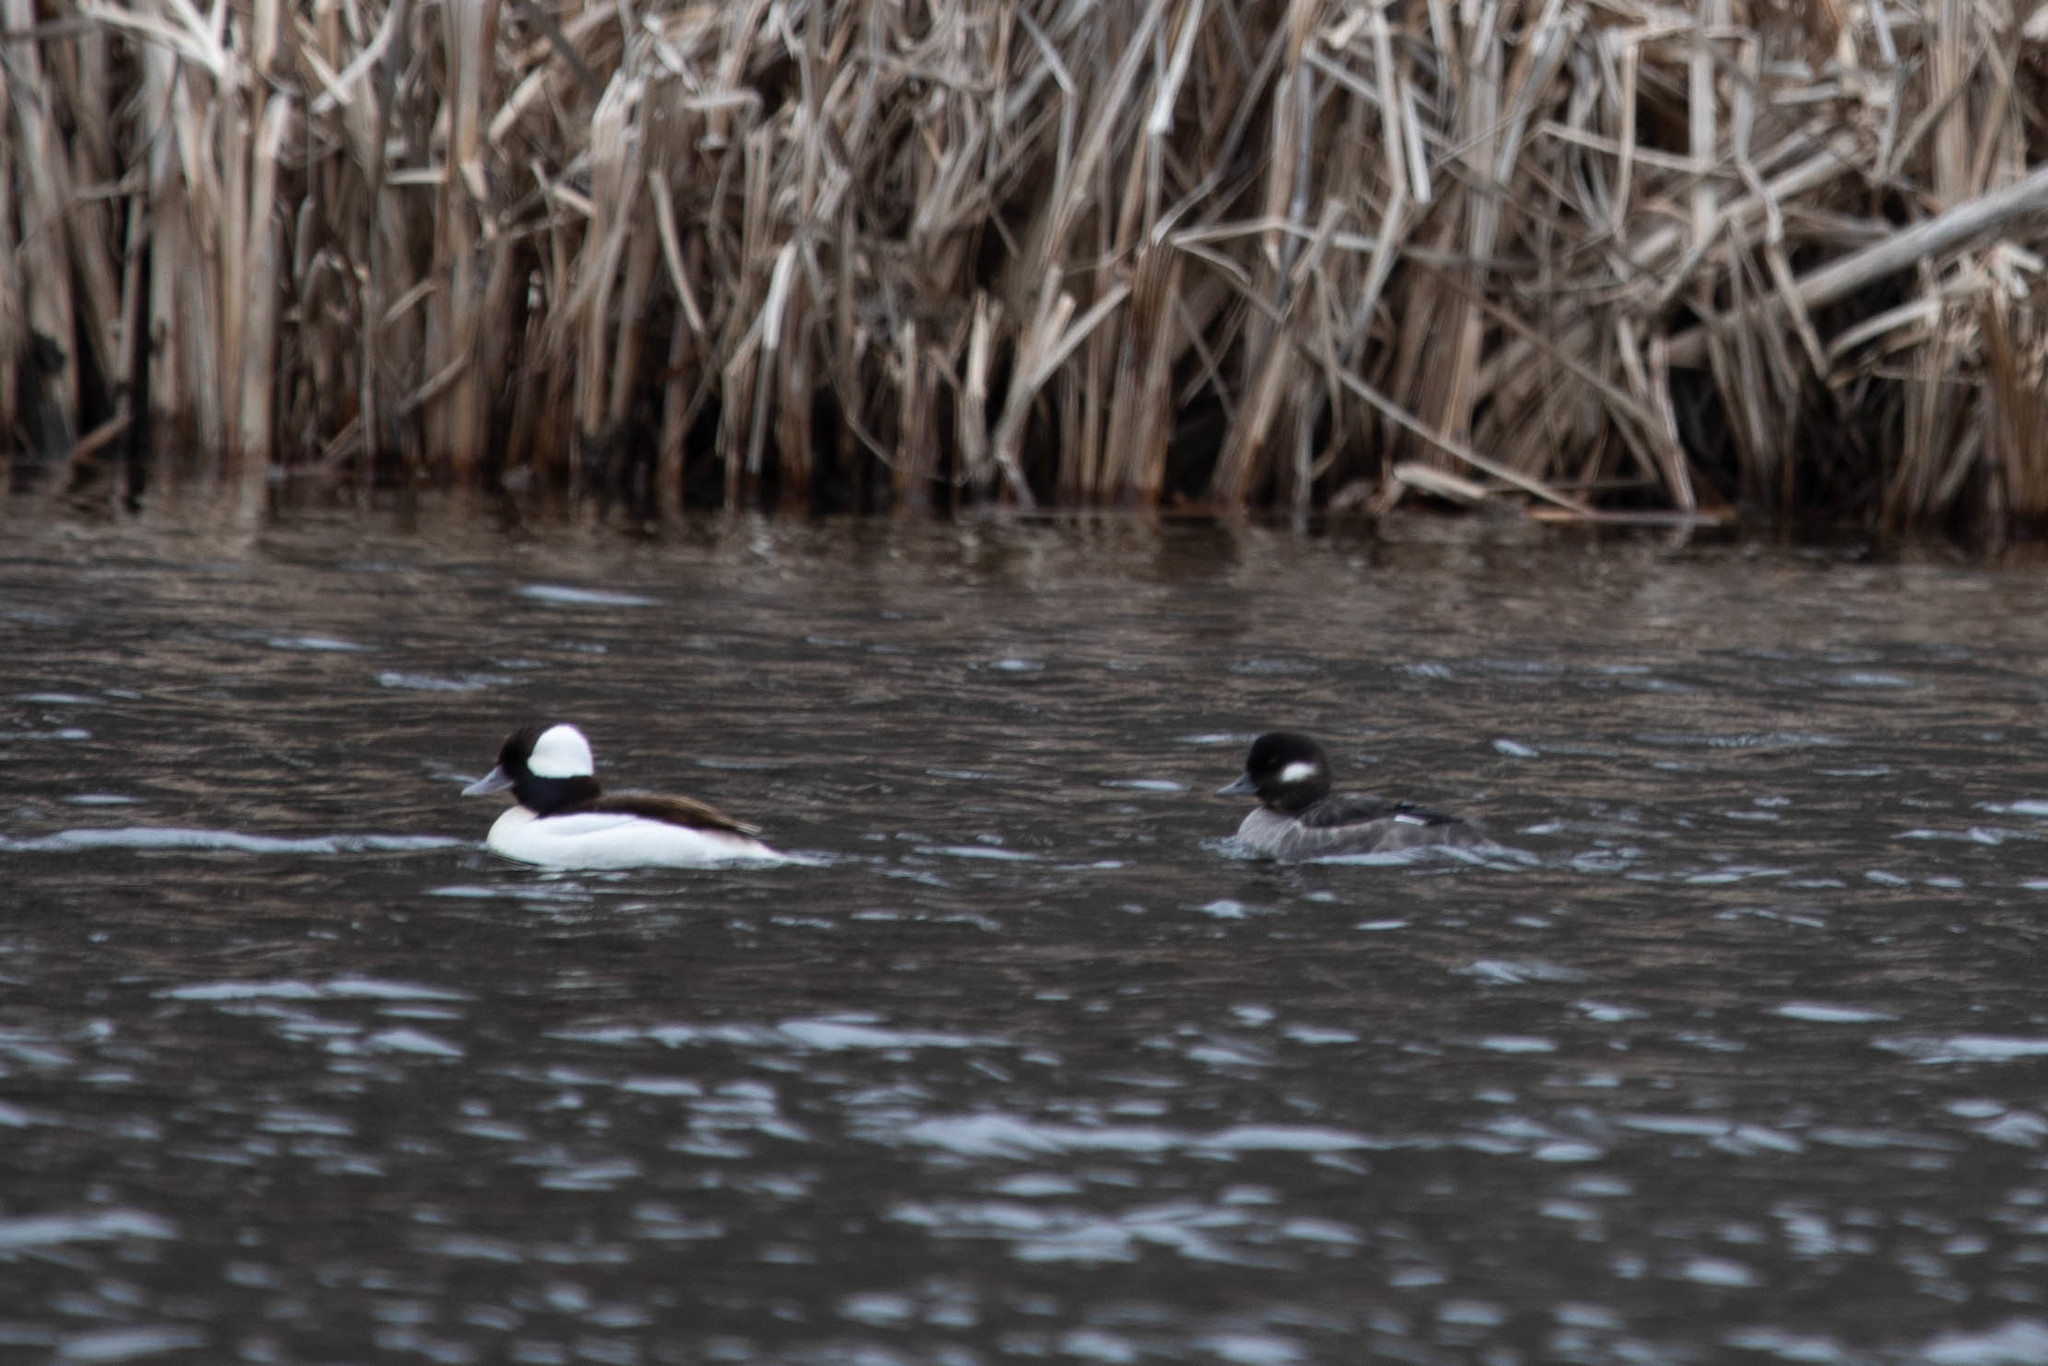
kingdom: Animalia
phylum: Chordata
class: Aves
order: Anseriformes
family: Anatidae
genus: Bucephala
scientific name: Bucephala albeola
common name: Bufflehead
